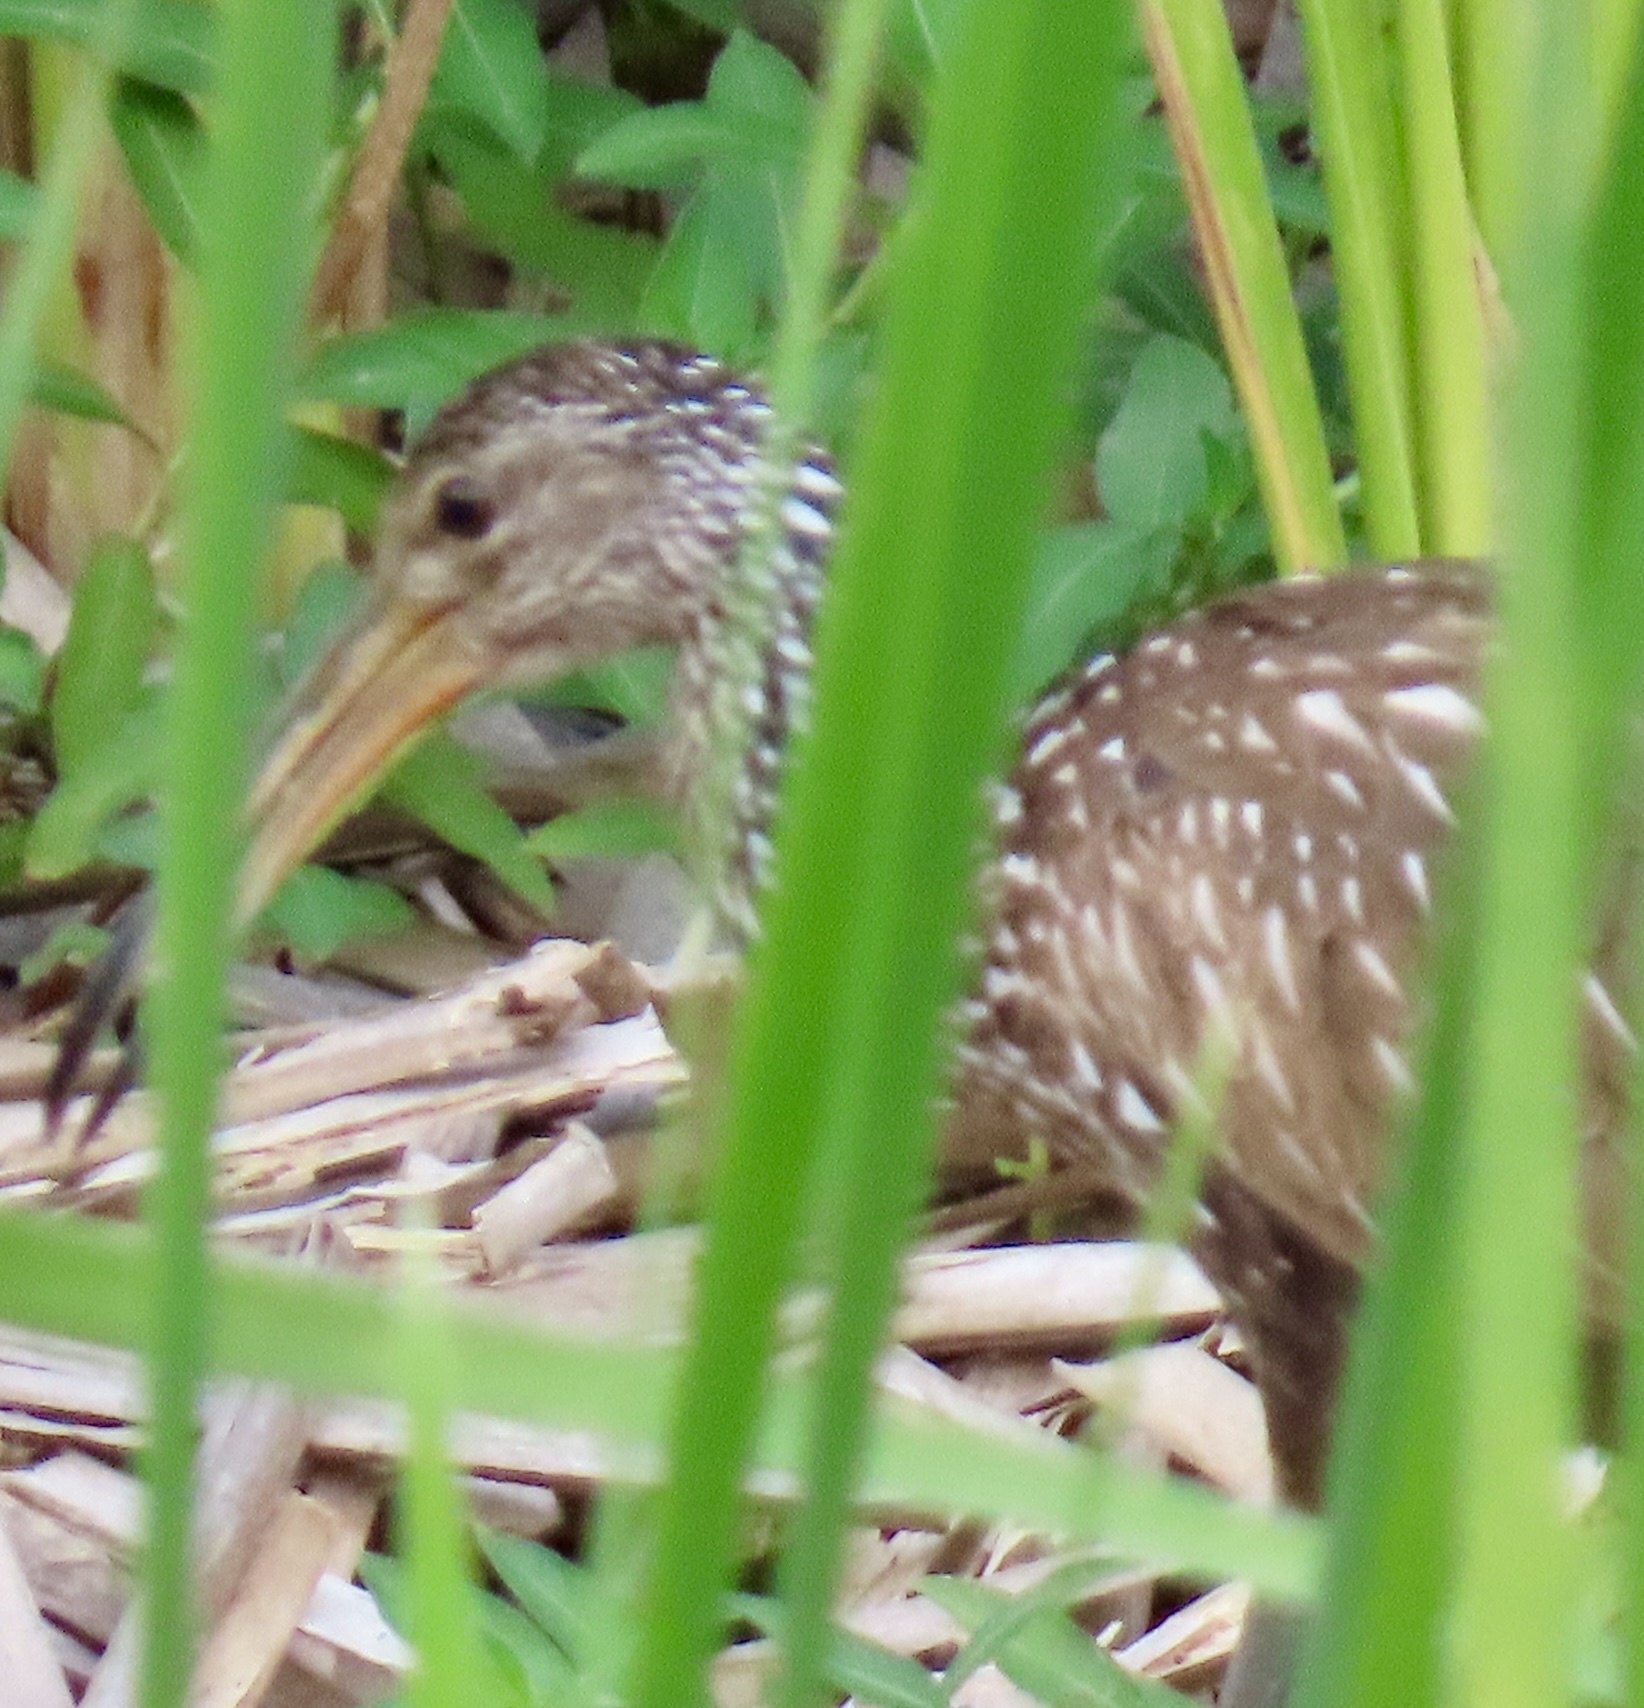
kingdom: Animalia
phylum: Chordata
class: Aves
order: Gruiformes
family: Aramidae
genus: Aramus
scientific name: Aramus guarauna
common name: Limpkin
